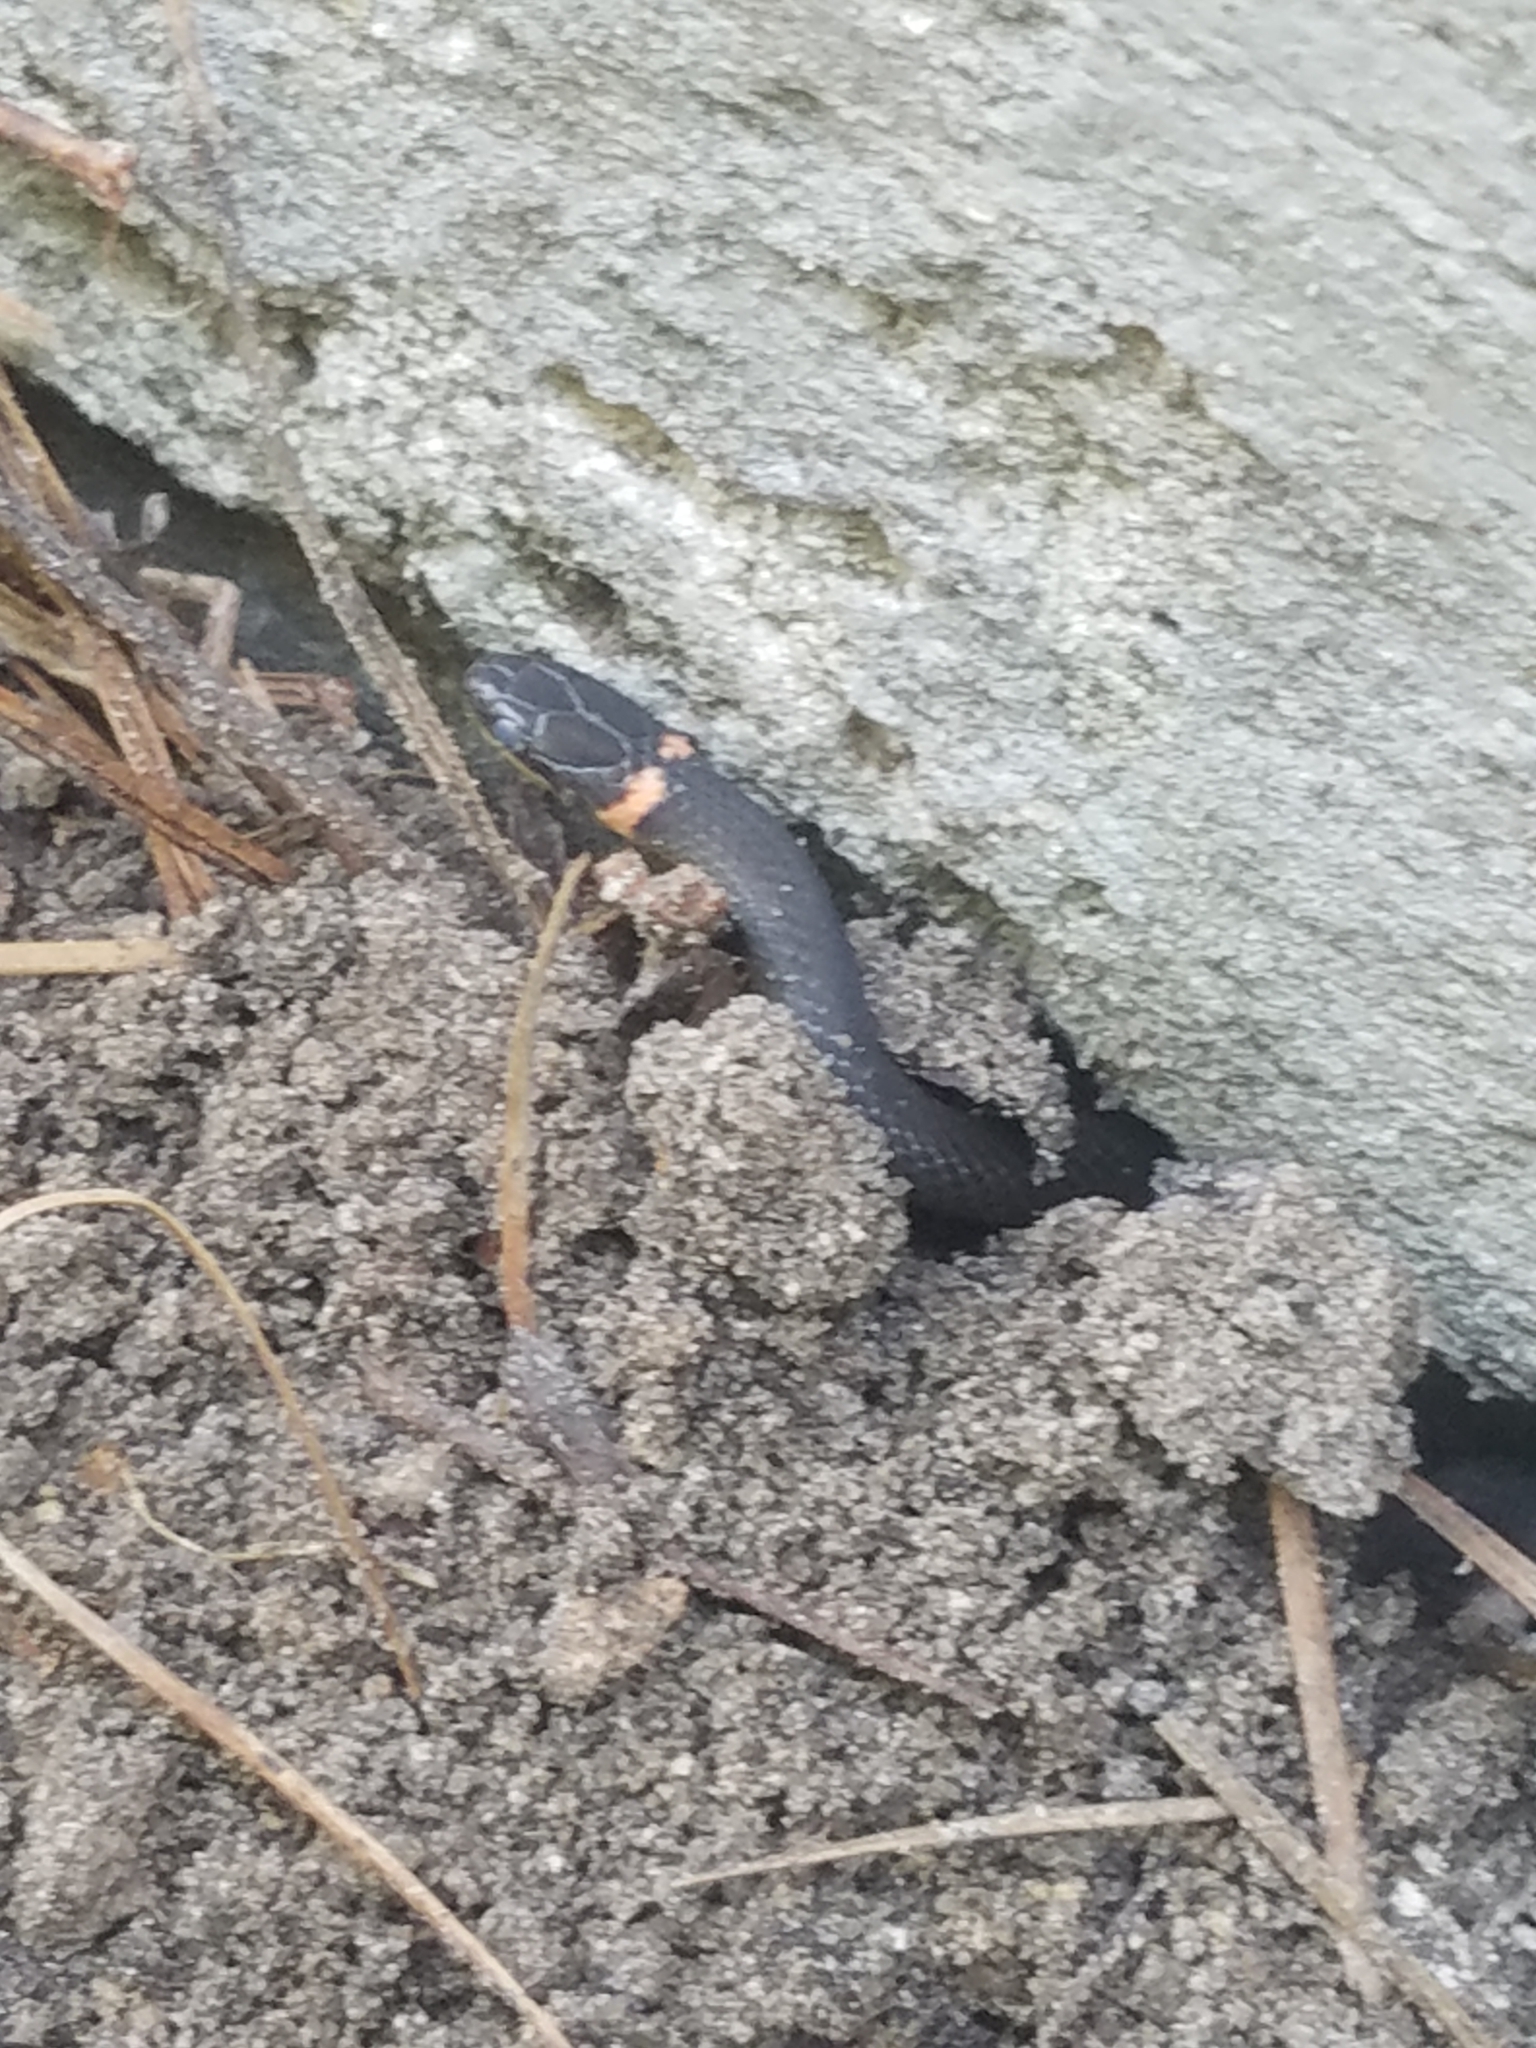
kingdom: Animalia
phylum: Chordata
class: Squamata
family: Colubridae
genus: Diadophis
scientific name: Diadophis punctatus
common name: Ringneck snake
